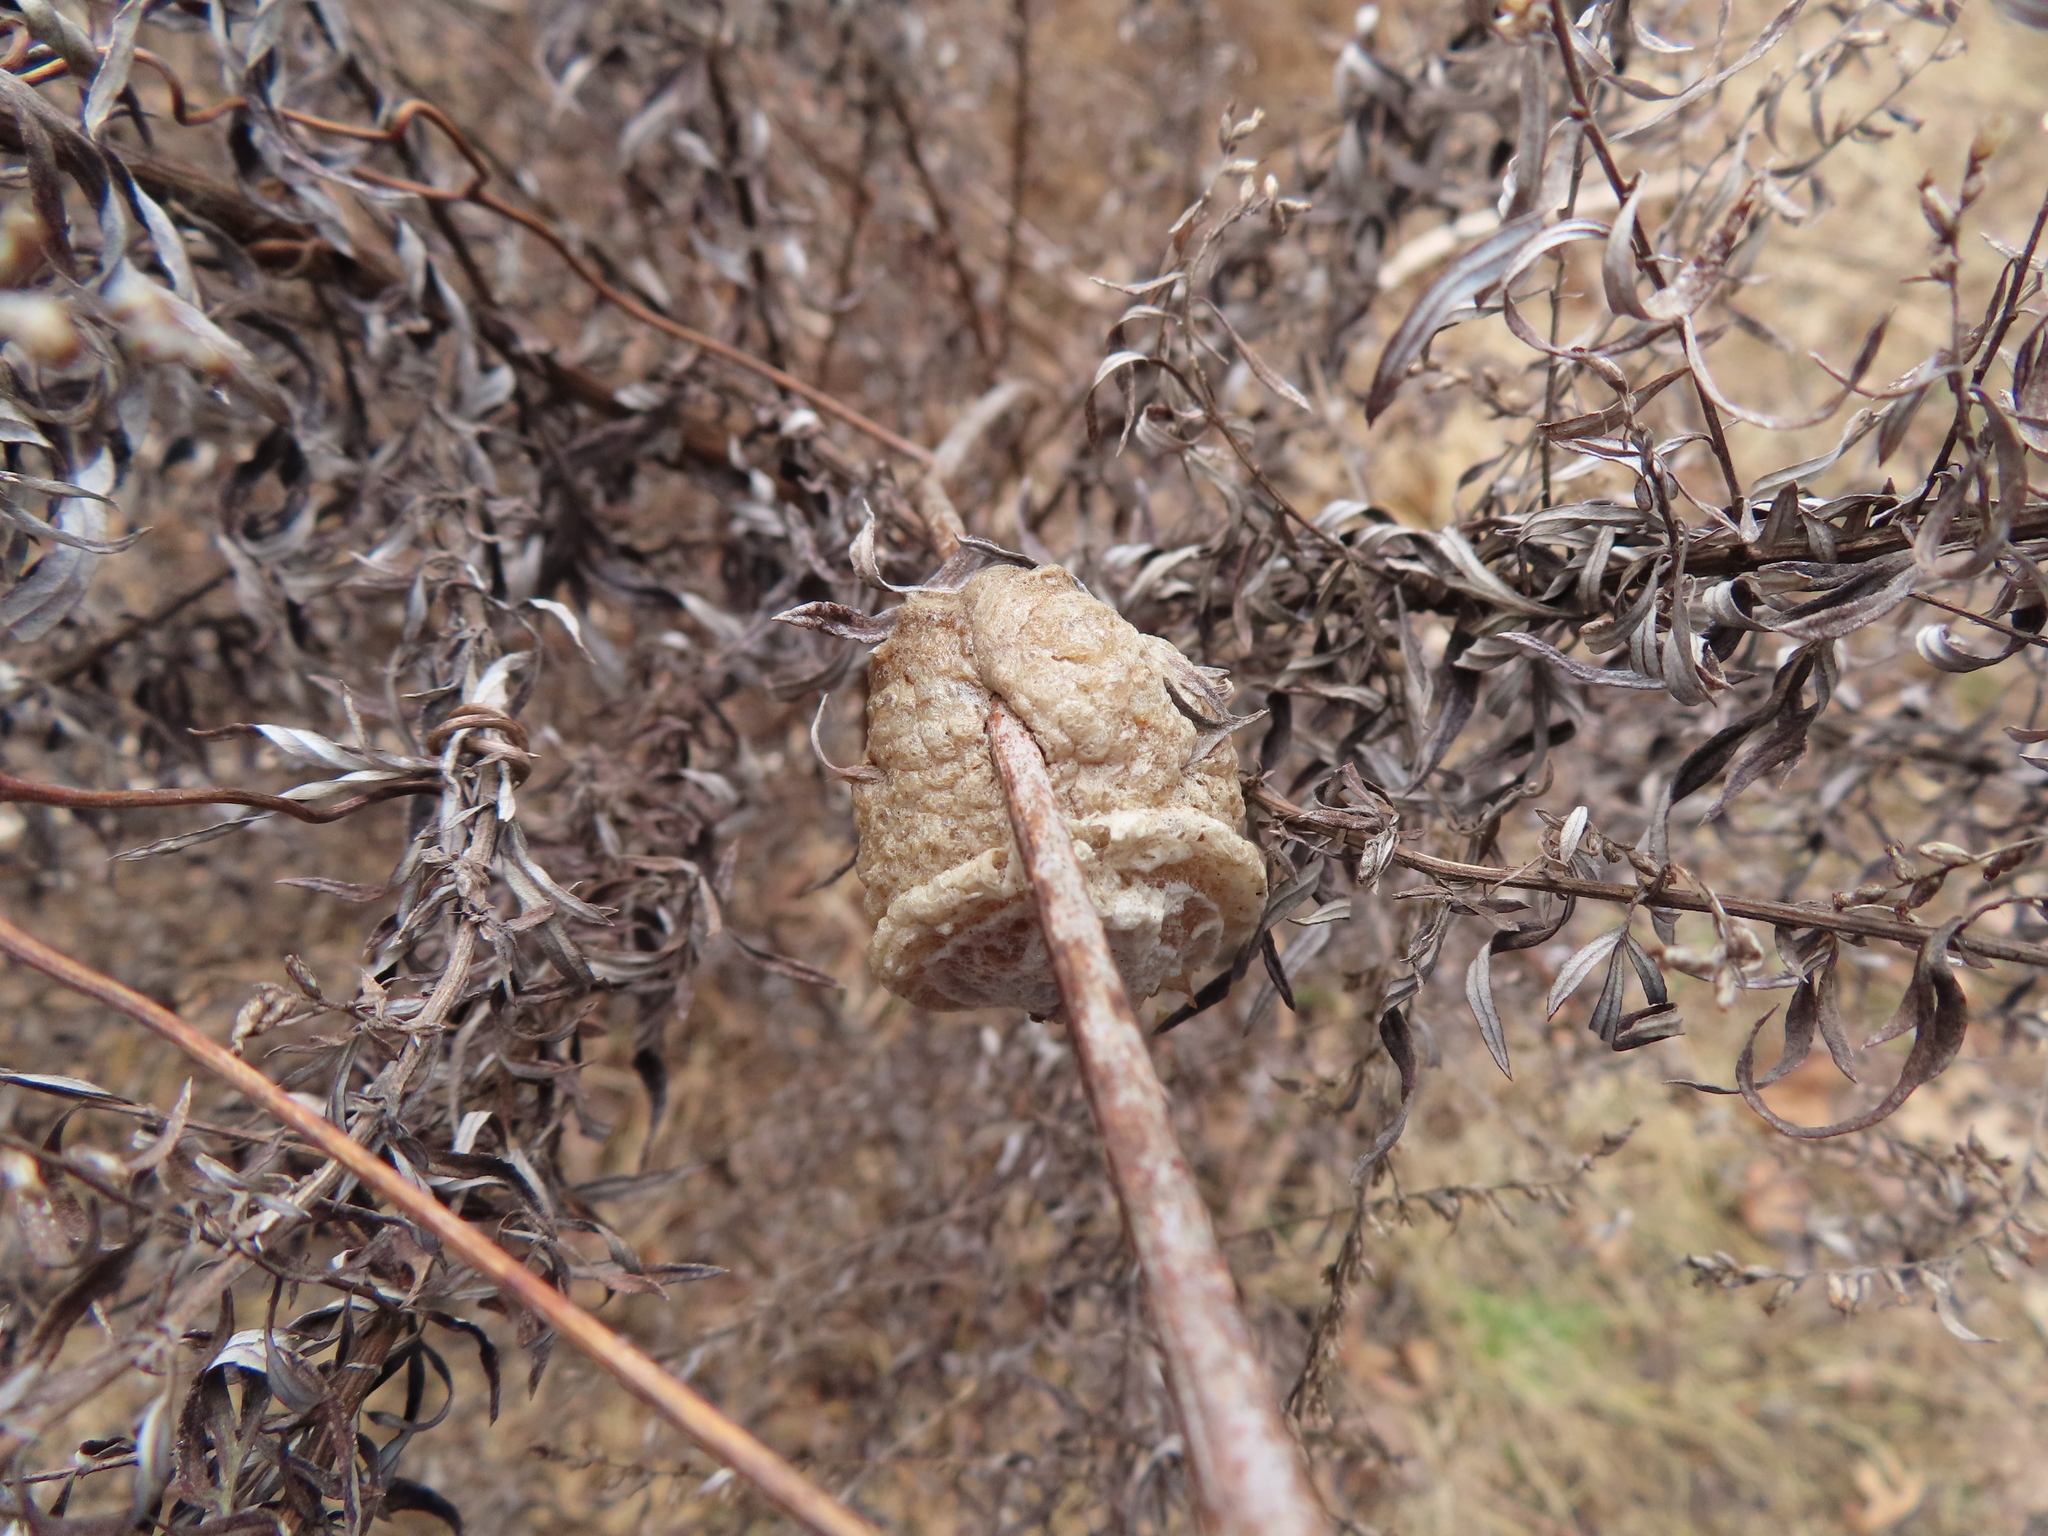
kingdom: Animalia
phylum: Arthropoda
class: Insecta
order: Mantodea
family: Mantidae
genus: Tenodera
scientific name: Tenodera sinensis
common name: Chinese mantis
